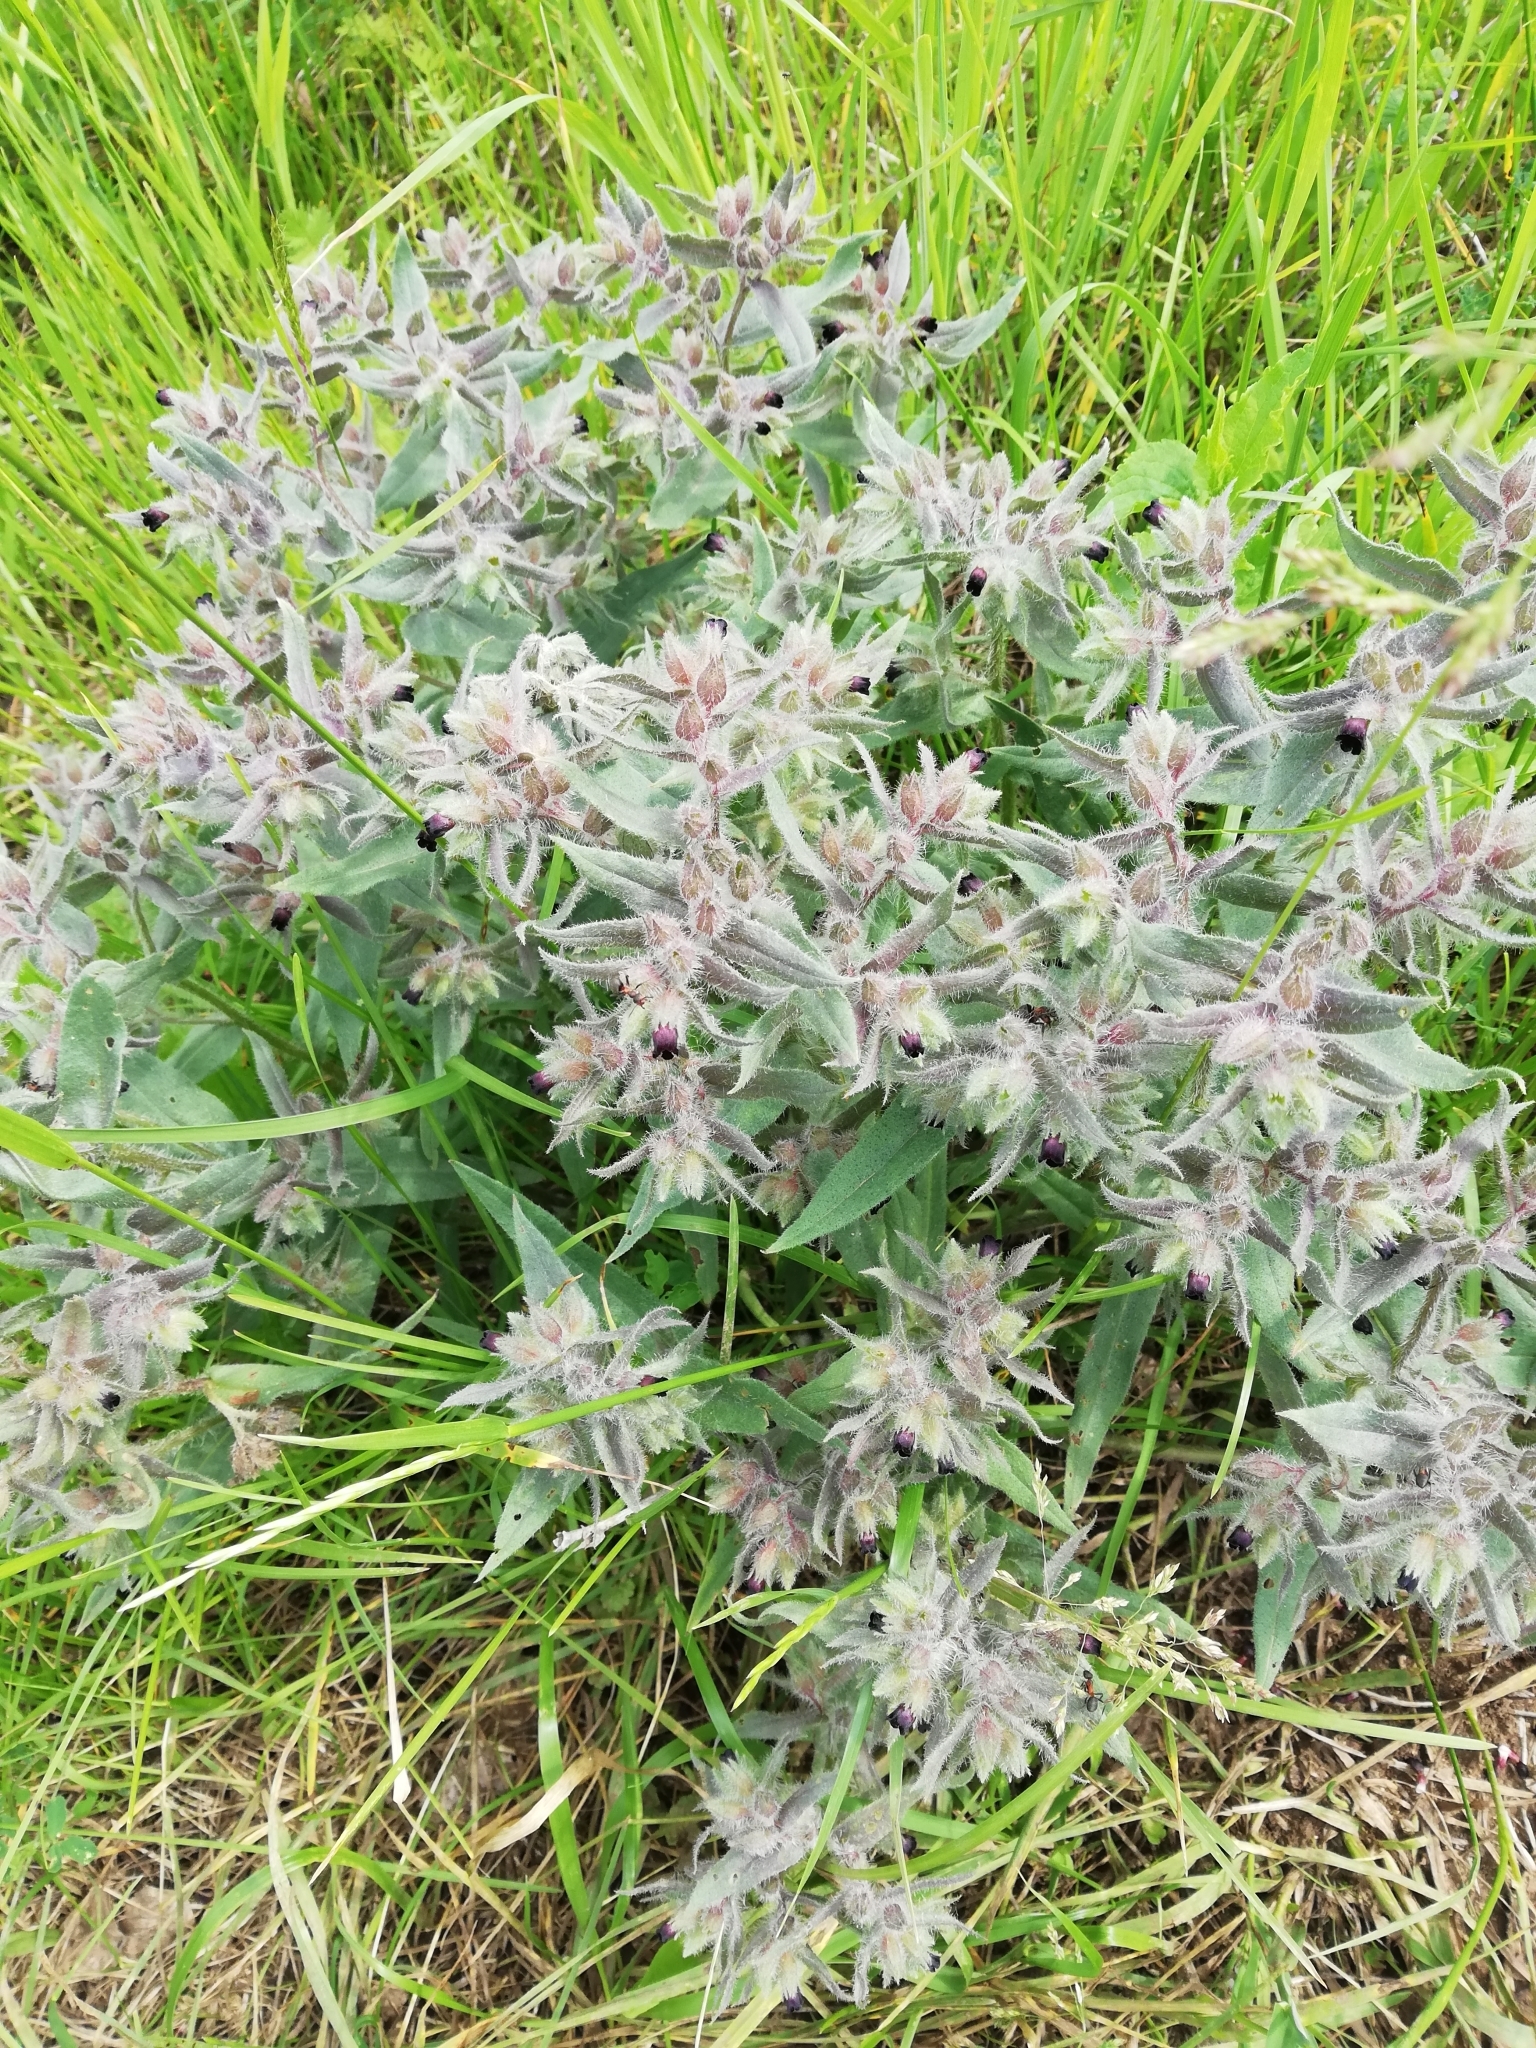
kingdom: Plantae
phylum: Tracheophyta
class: Magnoliopsida
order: Boraginales
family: Boraginaceae
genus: Nonea
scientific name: Nonea pulla
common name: Brown nonea
